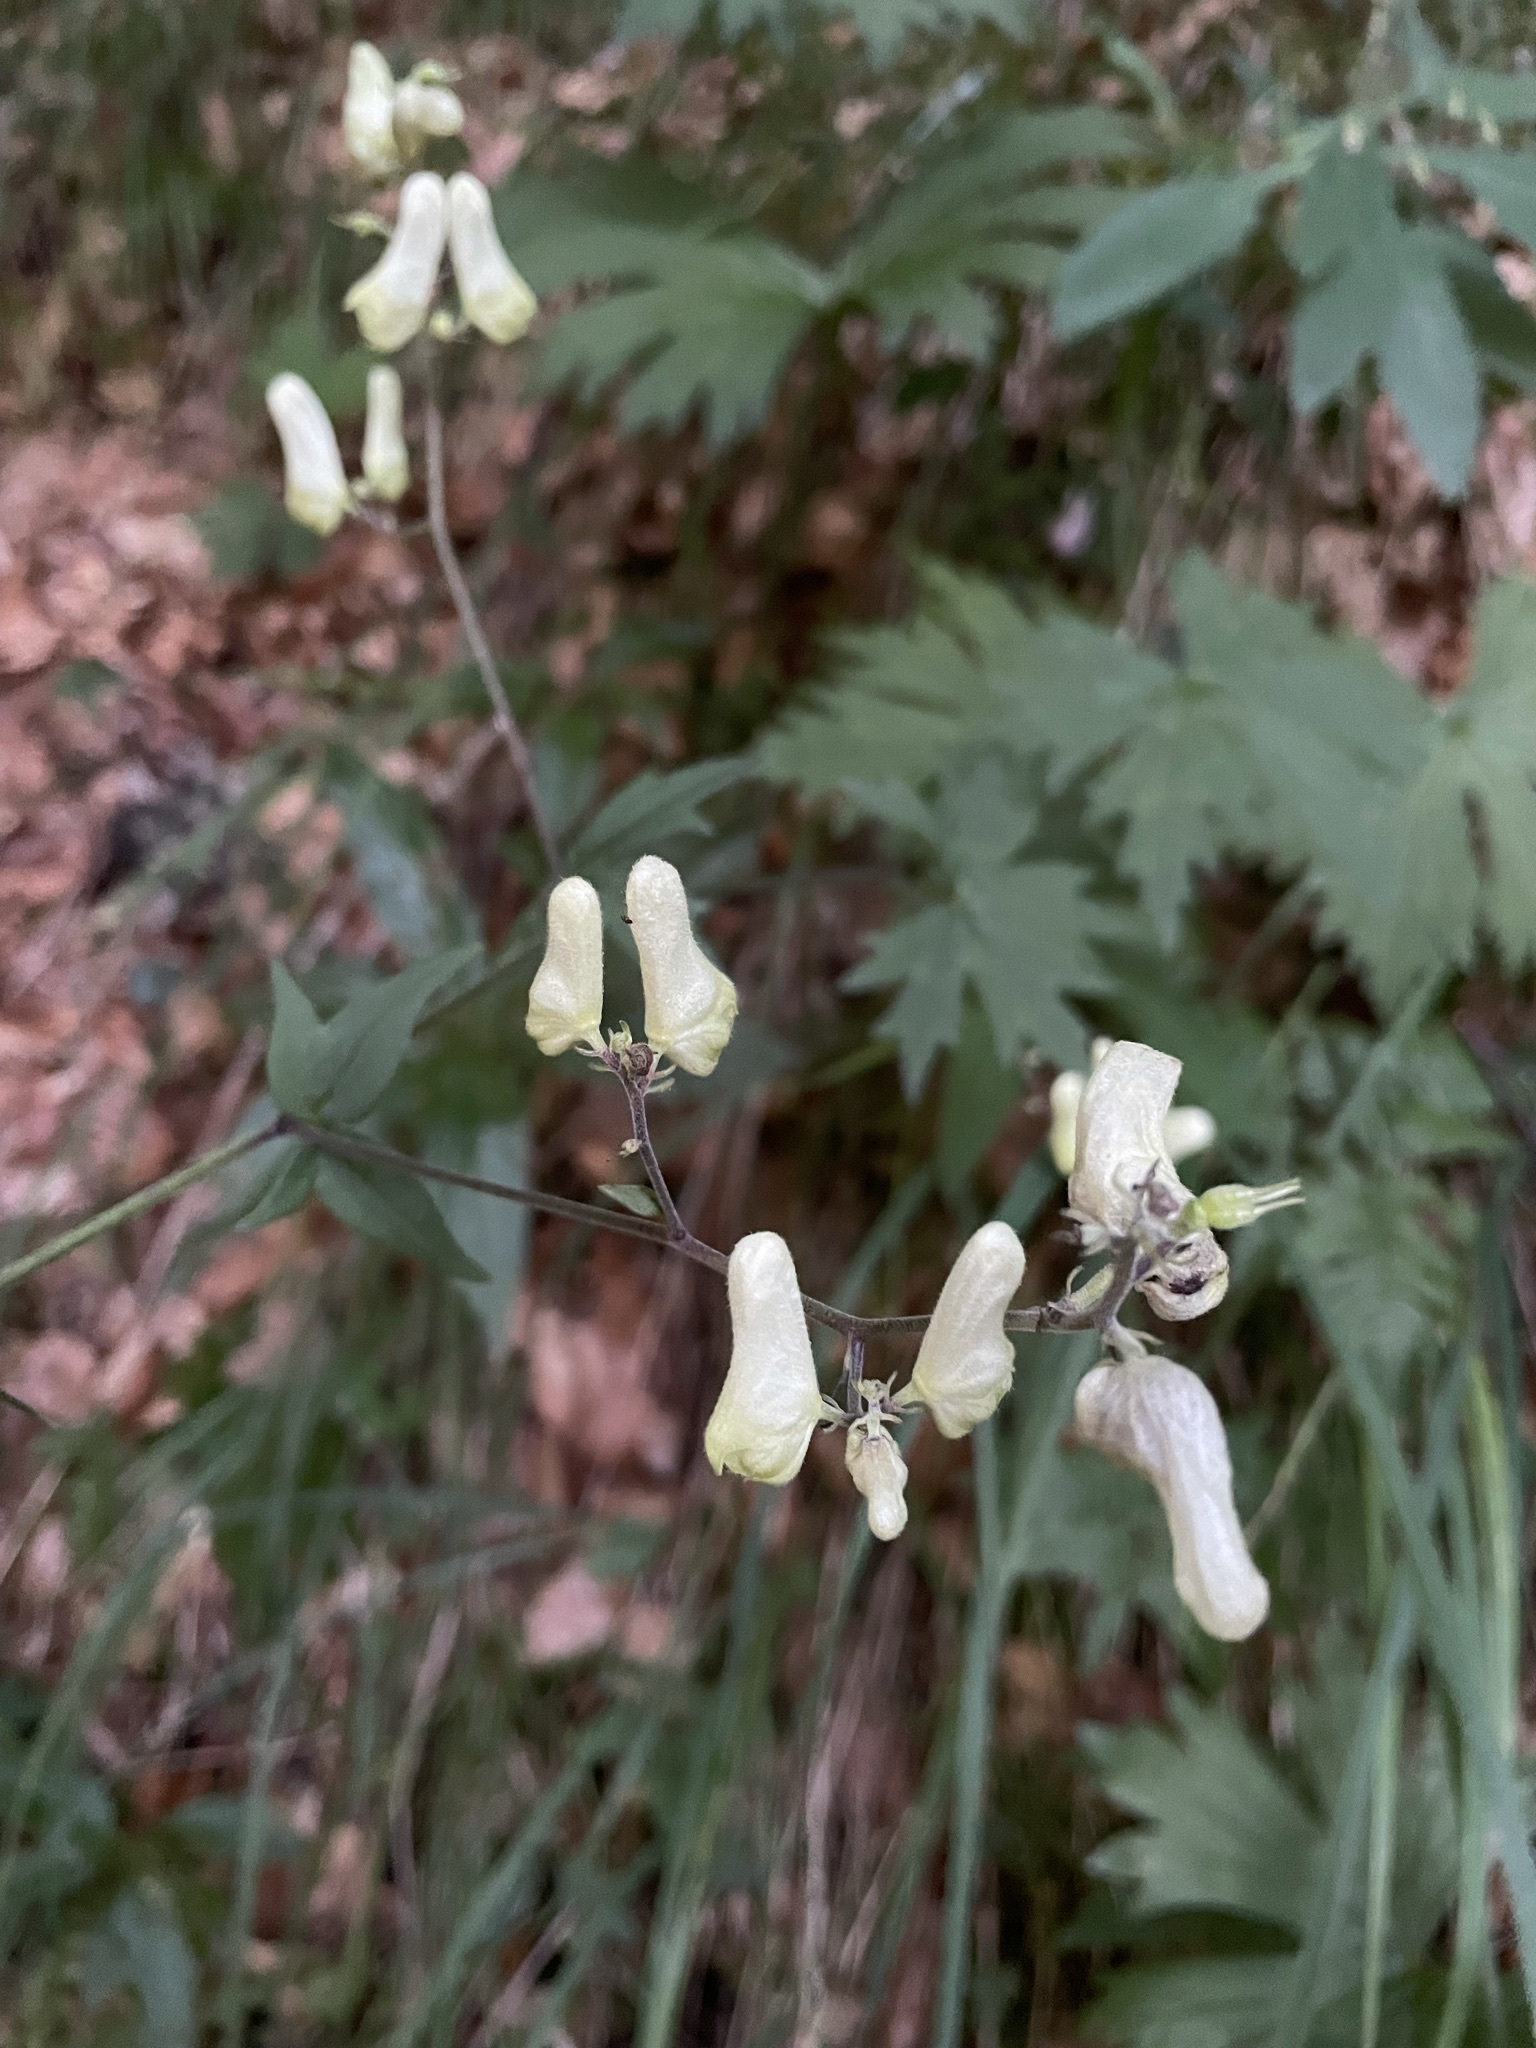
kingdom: Plantae
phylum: Tracheophyta
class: Magnoliopsida
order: Ranunculales
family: Ranunculaceae
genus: Aconitum
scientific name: Aconitum lycoctonum
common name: Wolf's-bane
